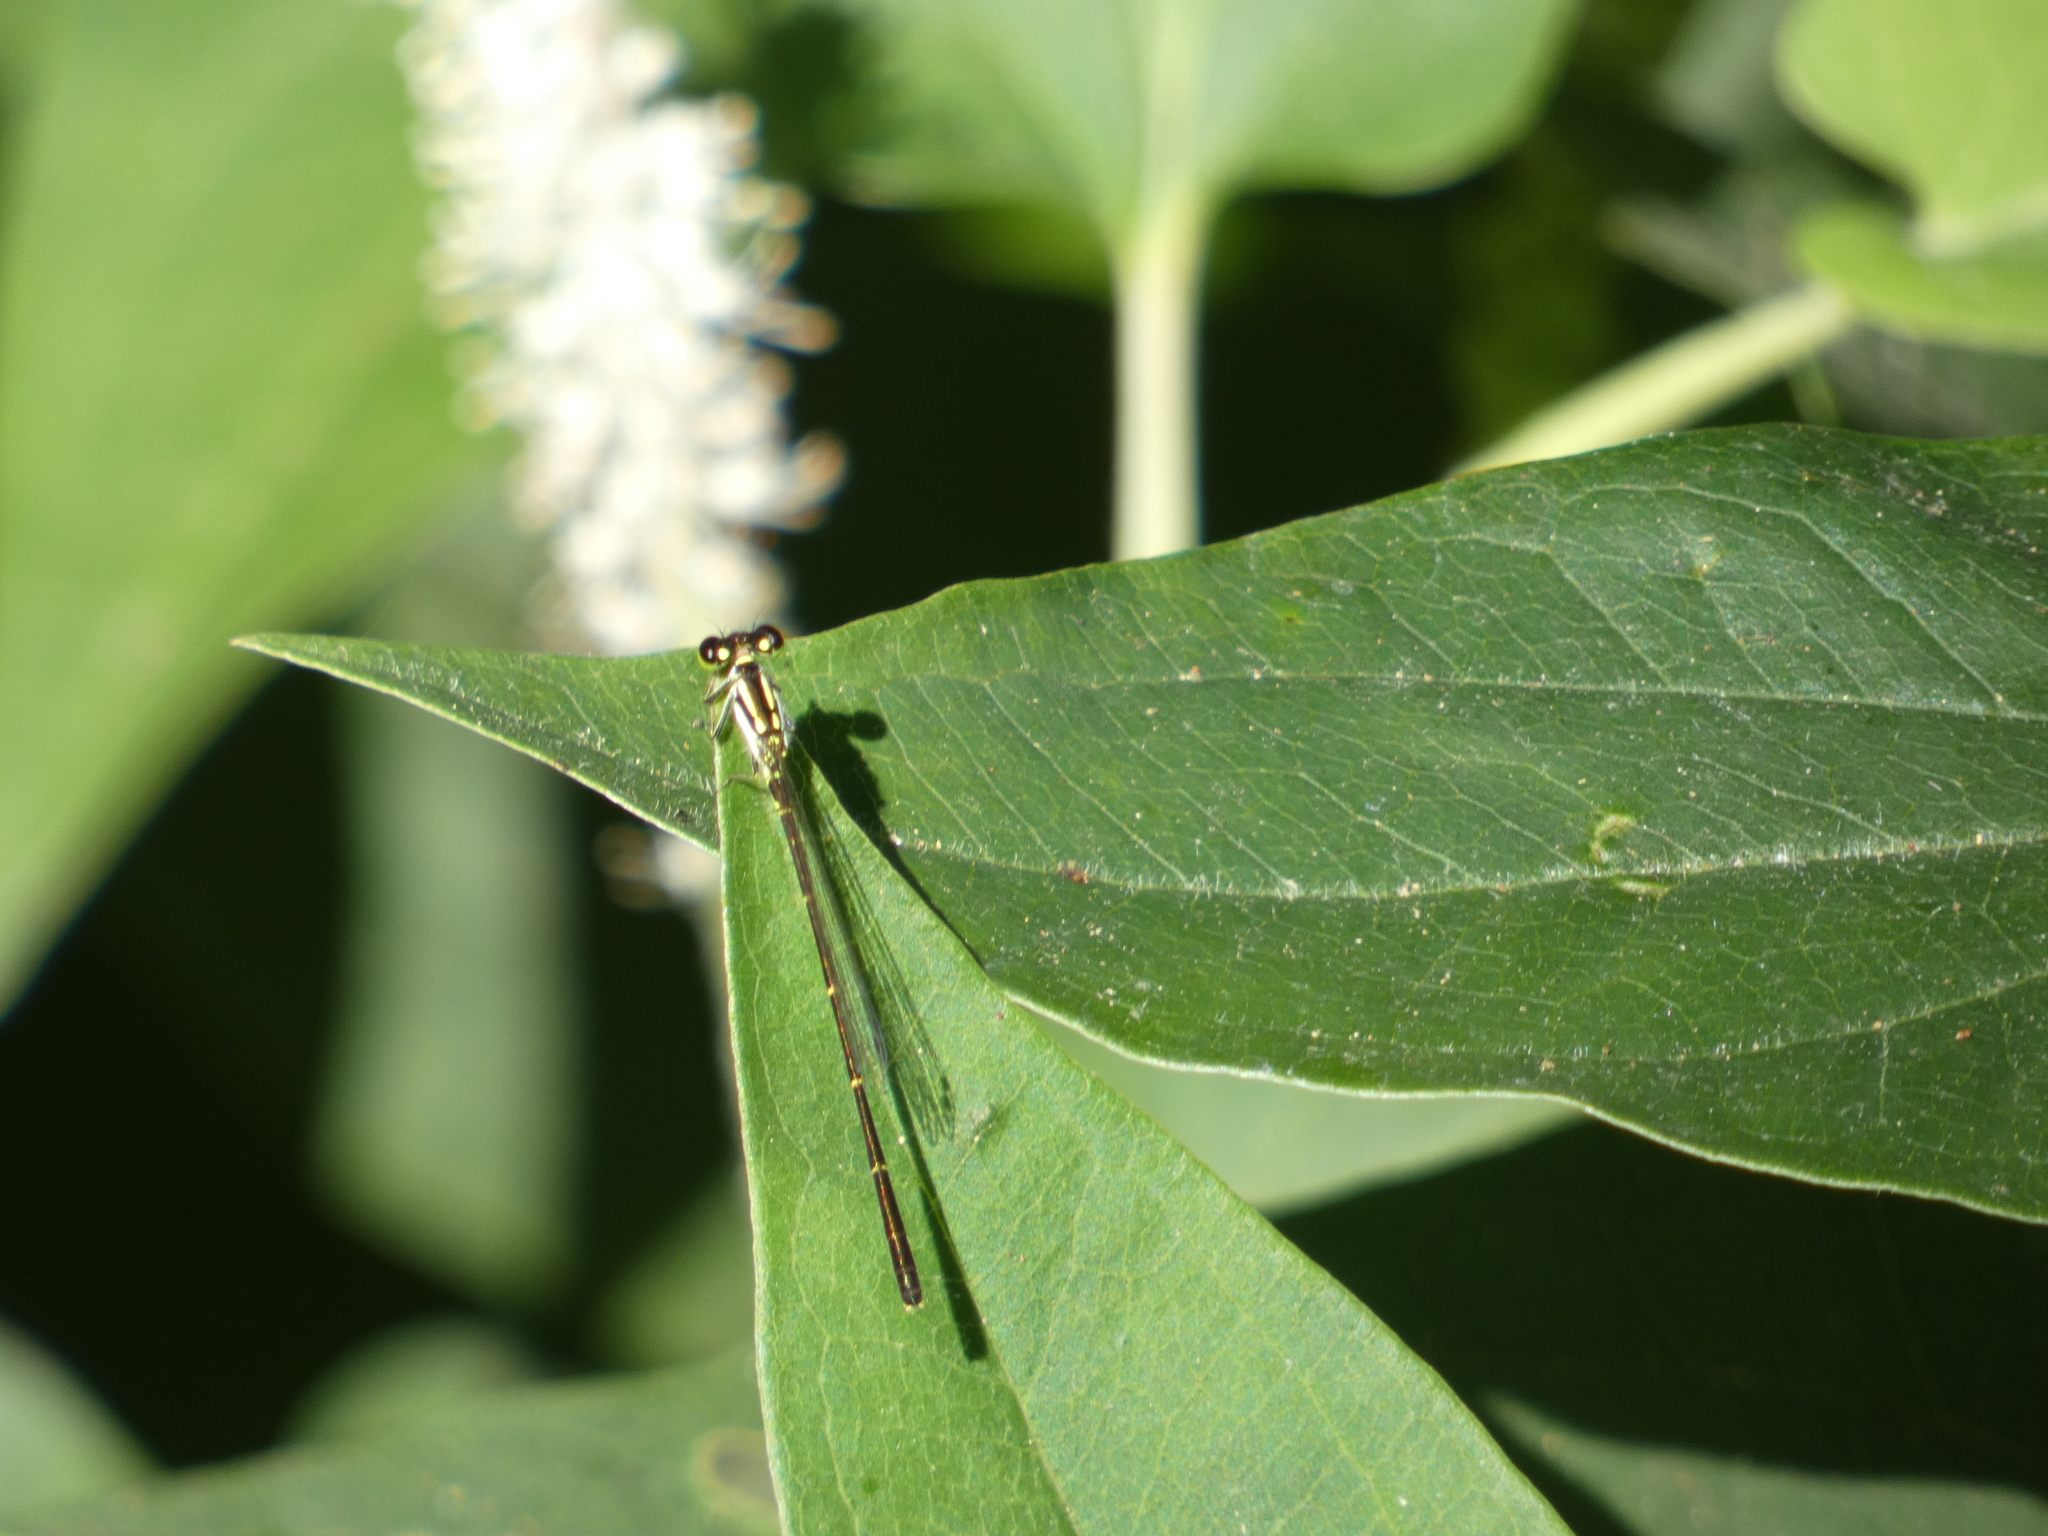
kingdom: Animalia
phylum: Arthropoda
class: Insecta
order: Odonata
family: Coenagrionidae
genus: Ischnura
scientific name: Ischnura posita
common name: Fragile forktail
